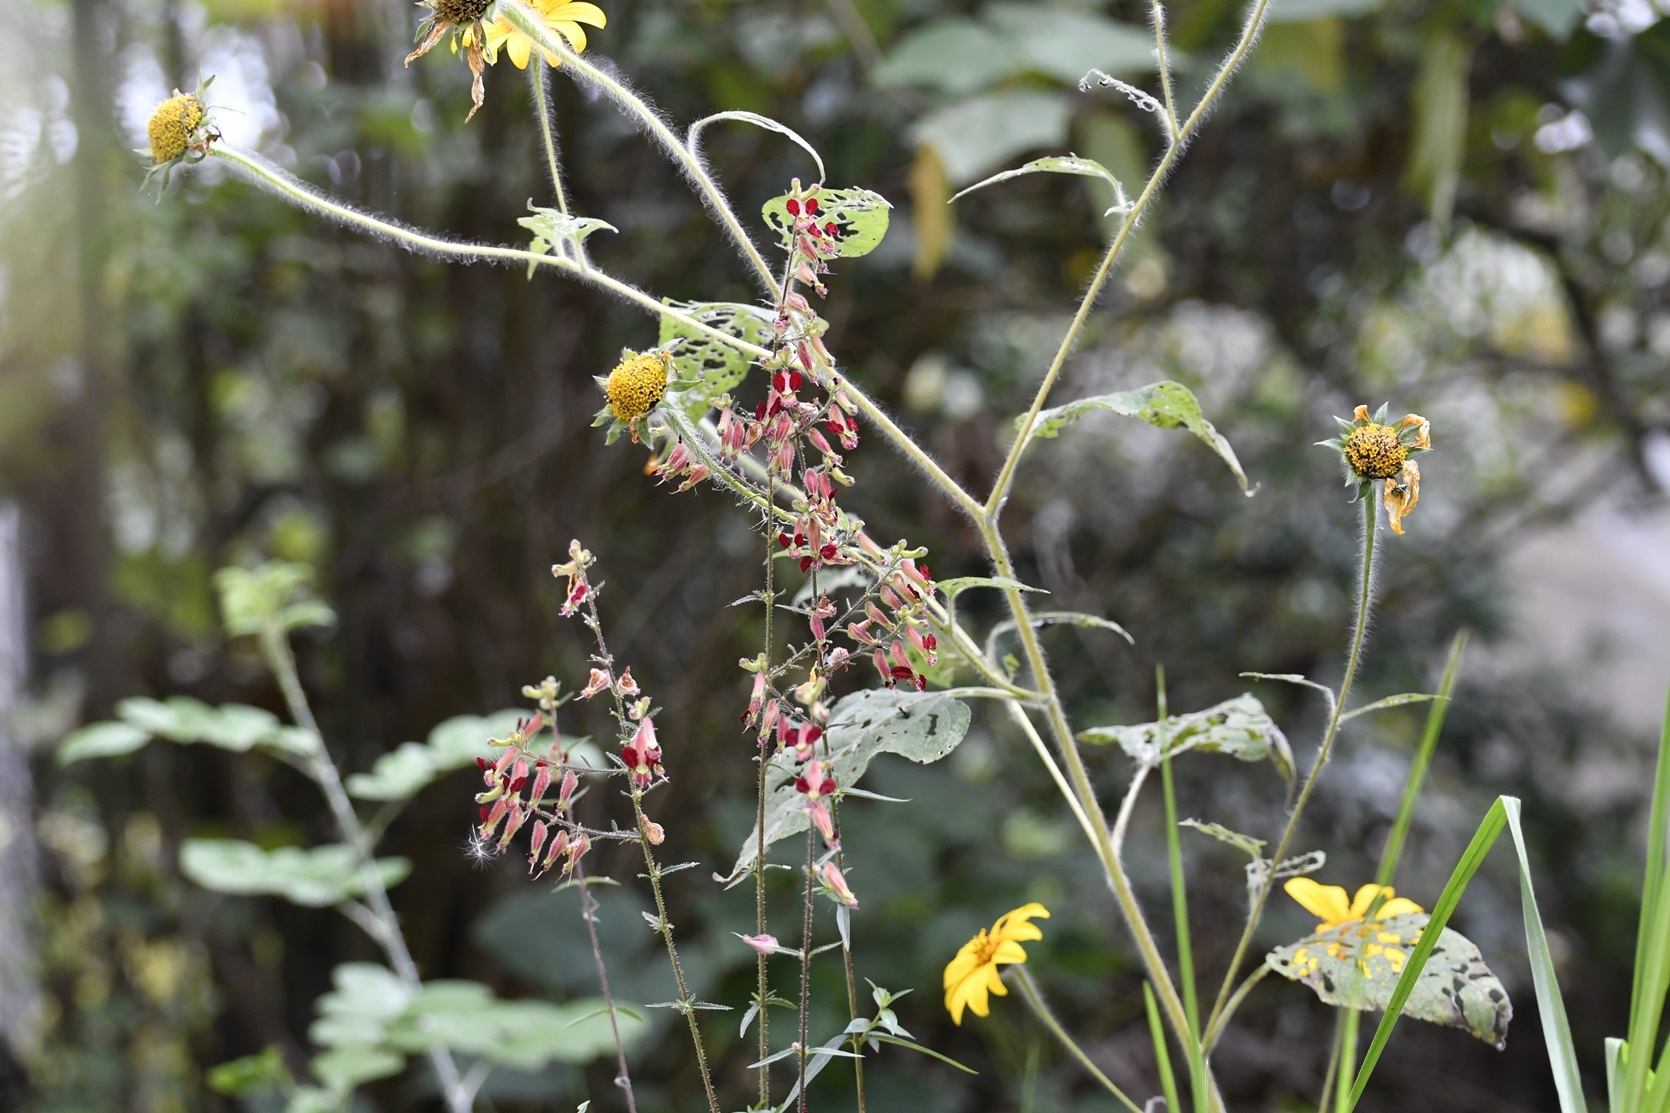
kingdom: Plantae
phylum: Tracheophyta
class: Magnoliopsida
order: Myrtales
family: Lythraceae
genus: Cuphea
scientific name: Cuphea hookeriana
